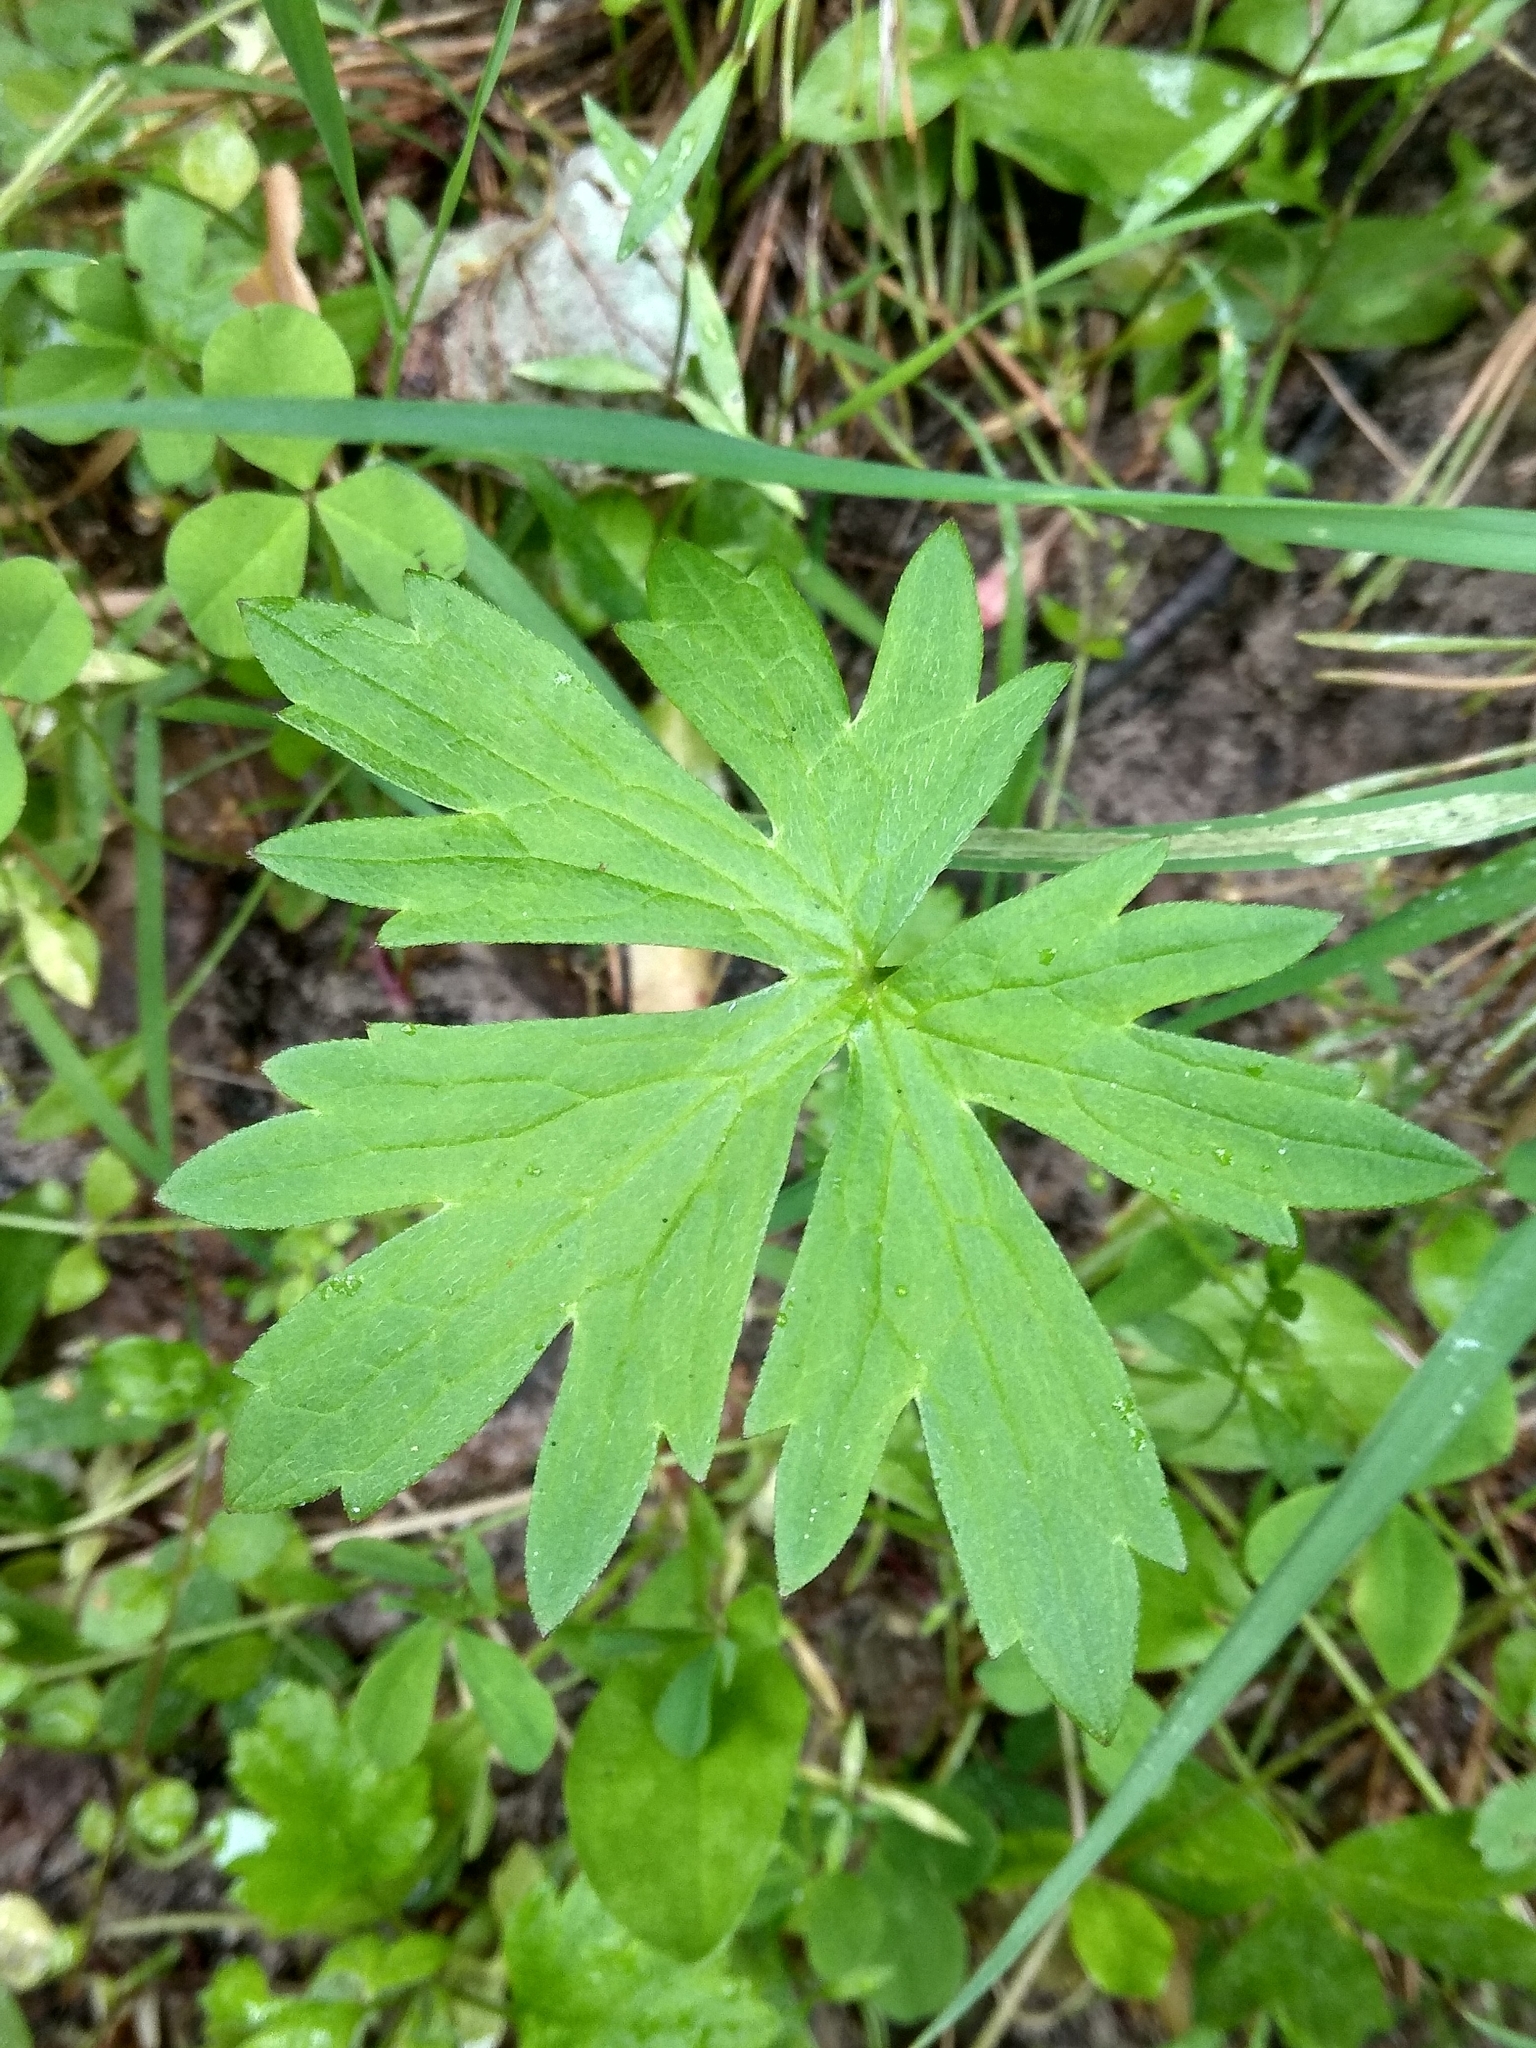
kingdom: Plantae
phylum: Tracheophyta
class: Magnoliopsida
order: Ranunculales
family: Ranunculaceae
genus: Ranunculus
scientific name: Ranunculus acris
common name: Meadow buttercup
